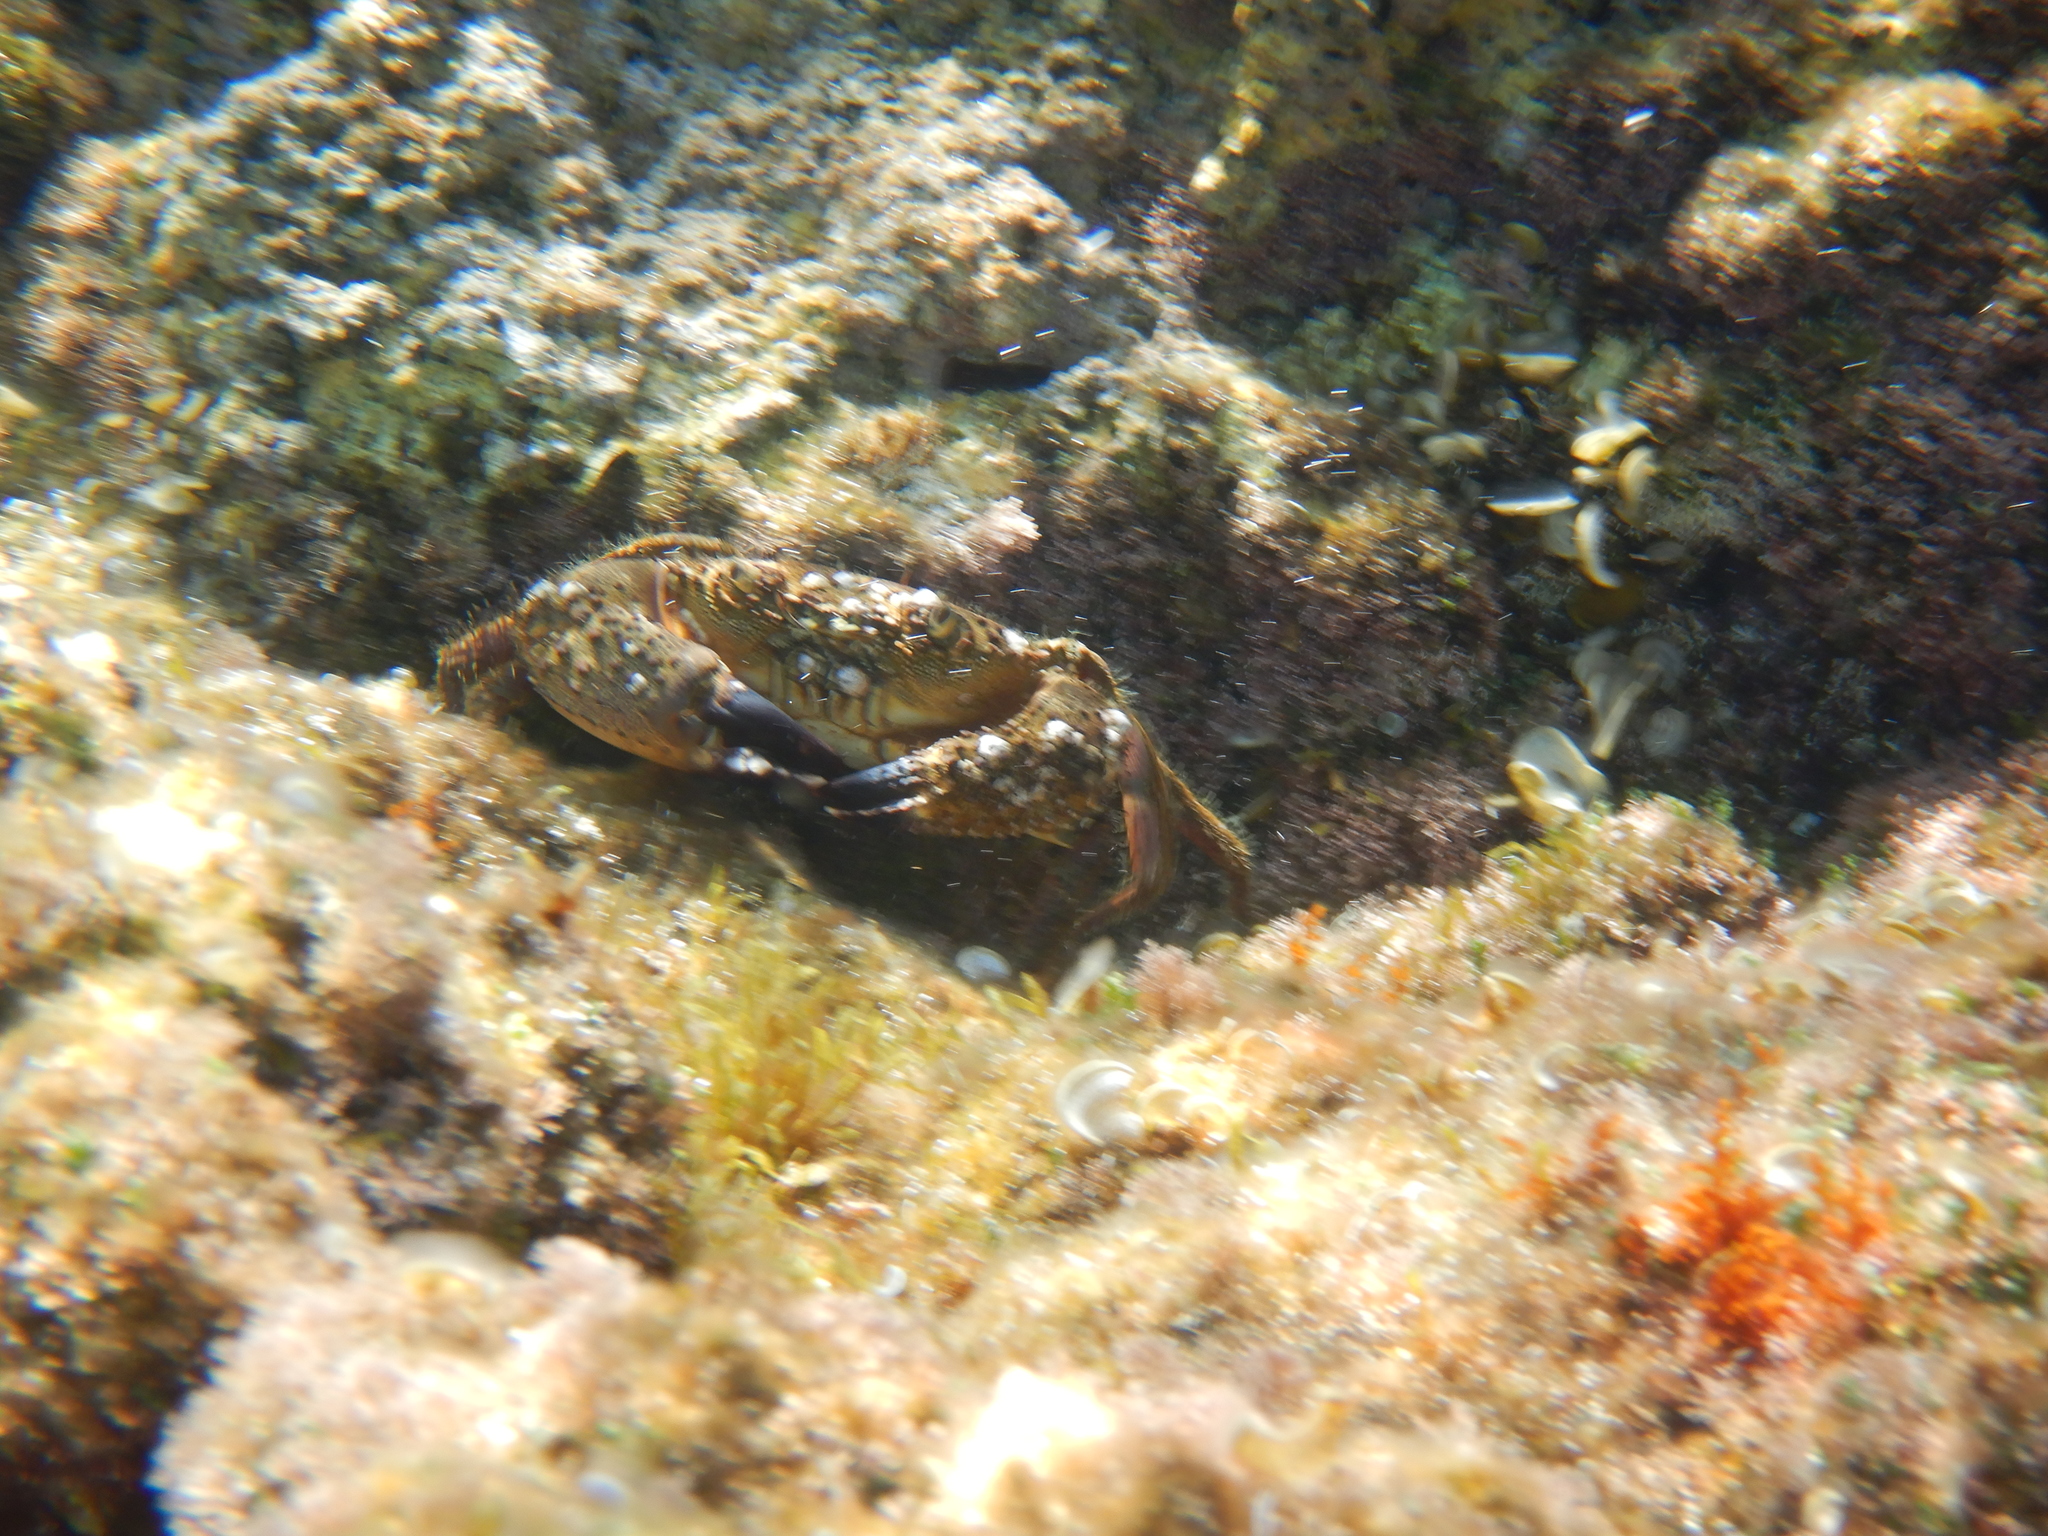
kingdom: Animalia
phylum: Arthropoda
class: Malacostraca
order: Decapoda
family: Eriphiidae
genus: Eriphia
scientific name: Eriphia verrucosa
